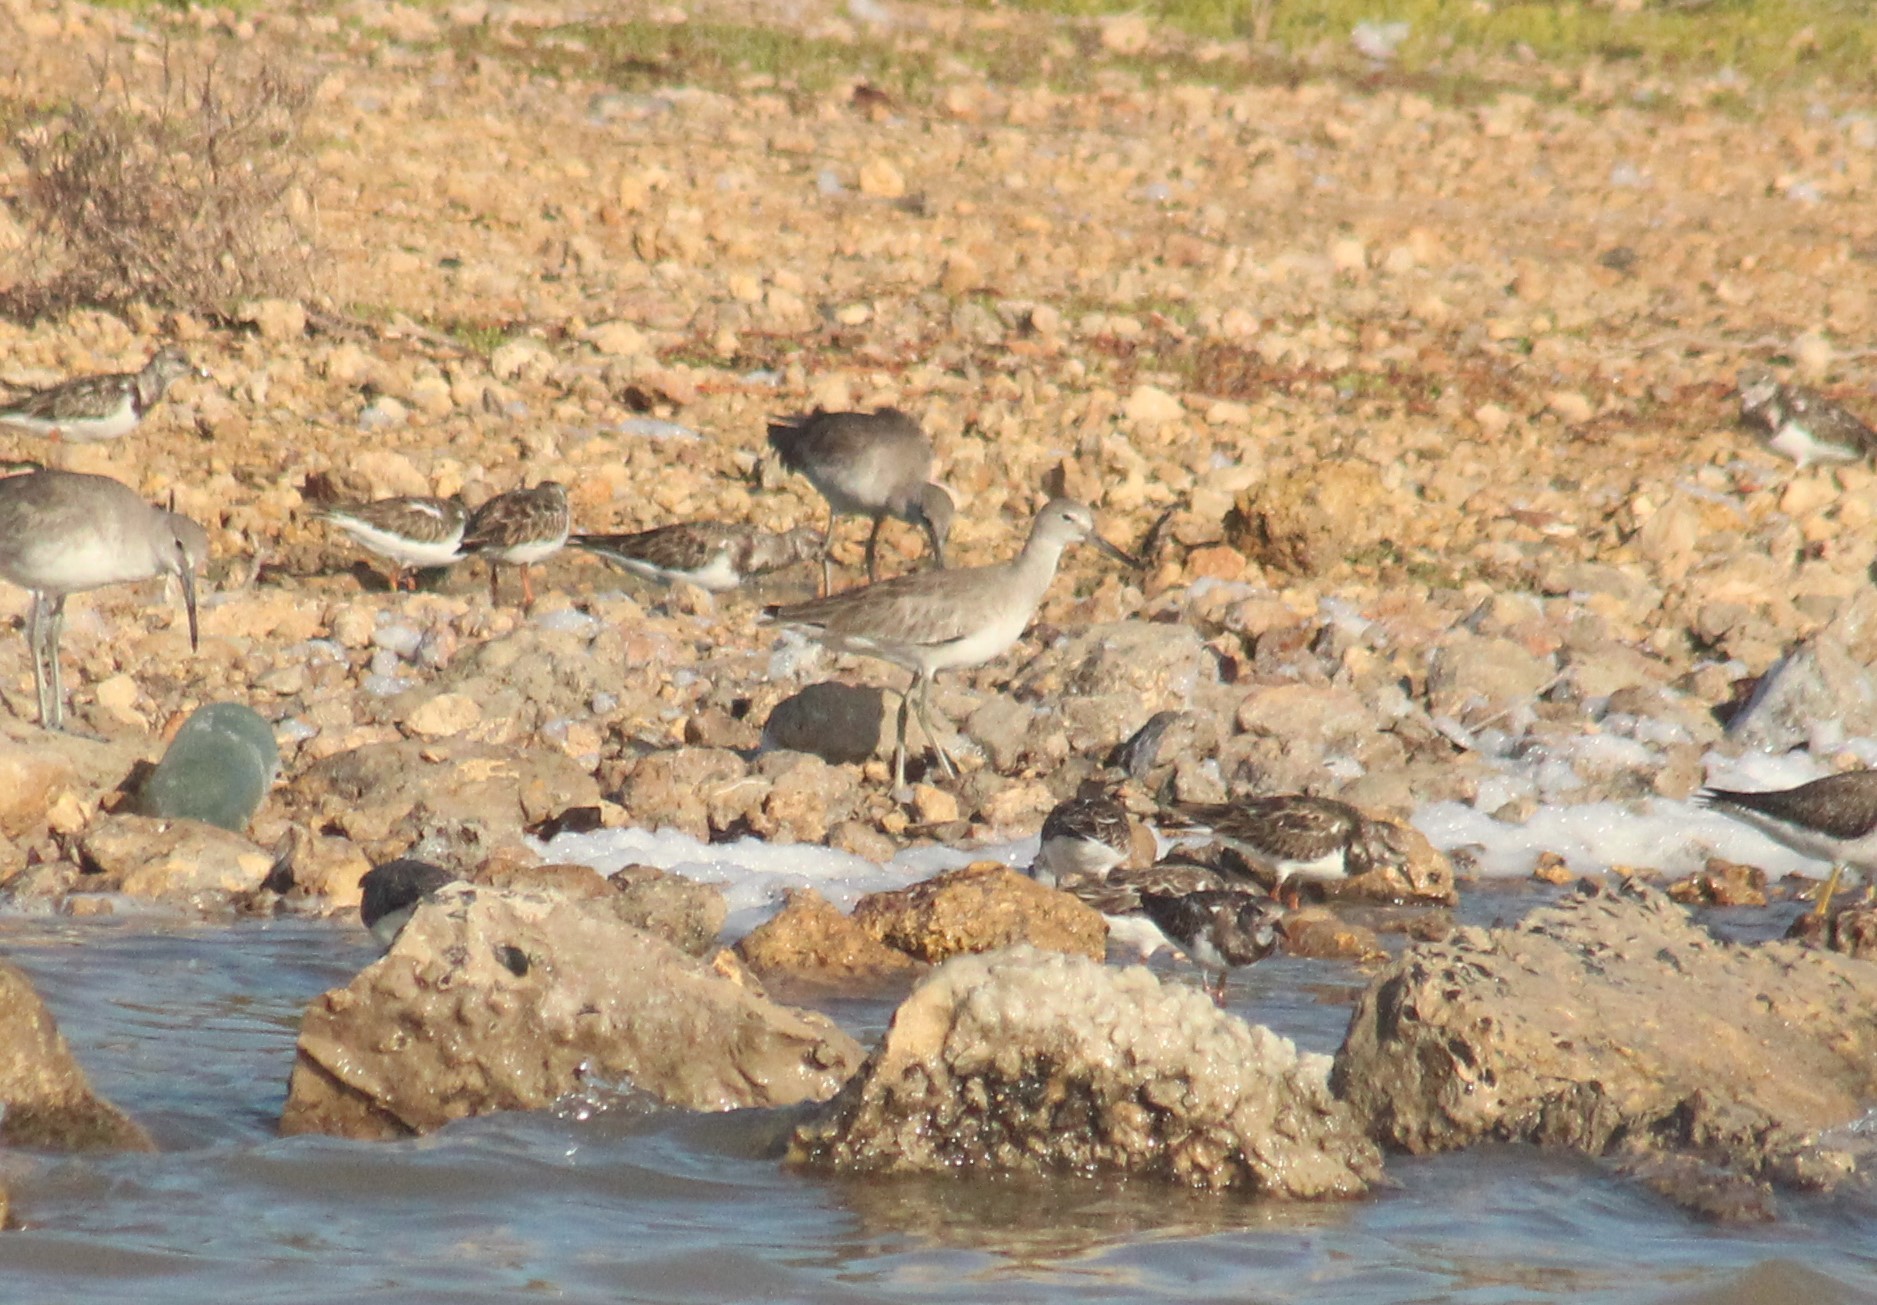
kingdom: Animalia
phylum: Chordata
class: Aves
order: Charadriiformes
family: Scolopacidae
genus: Tringa
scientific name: Tringa semipalmata
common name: Willet
